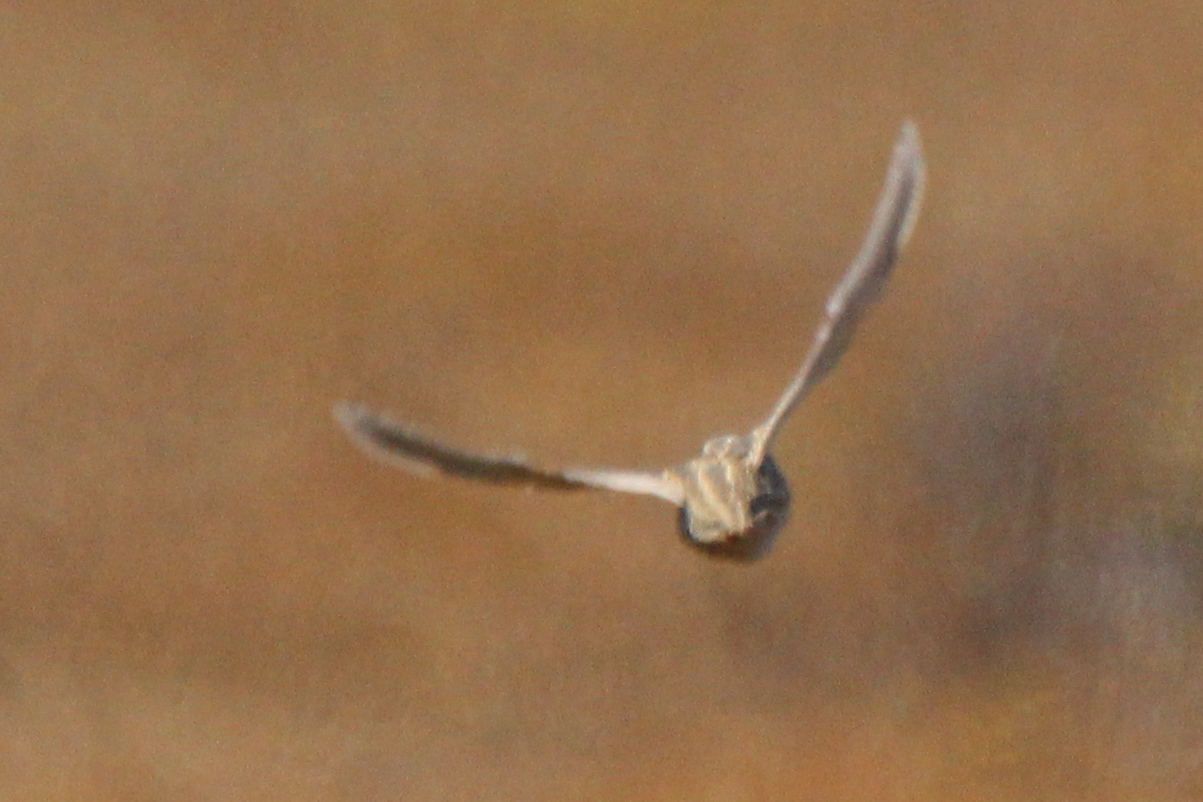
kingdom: Animalia
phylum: Chordata
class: Aves
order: Galliformes
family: Phasianidae
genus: Coturnix
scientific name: Coturnix coturnix
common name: Common quail
